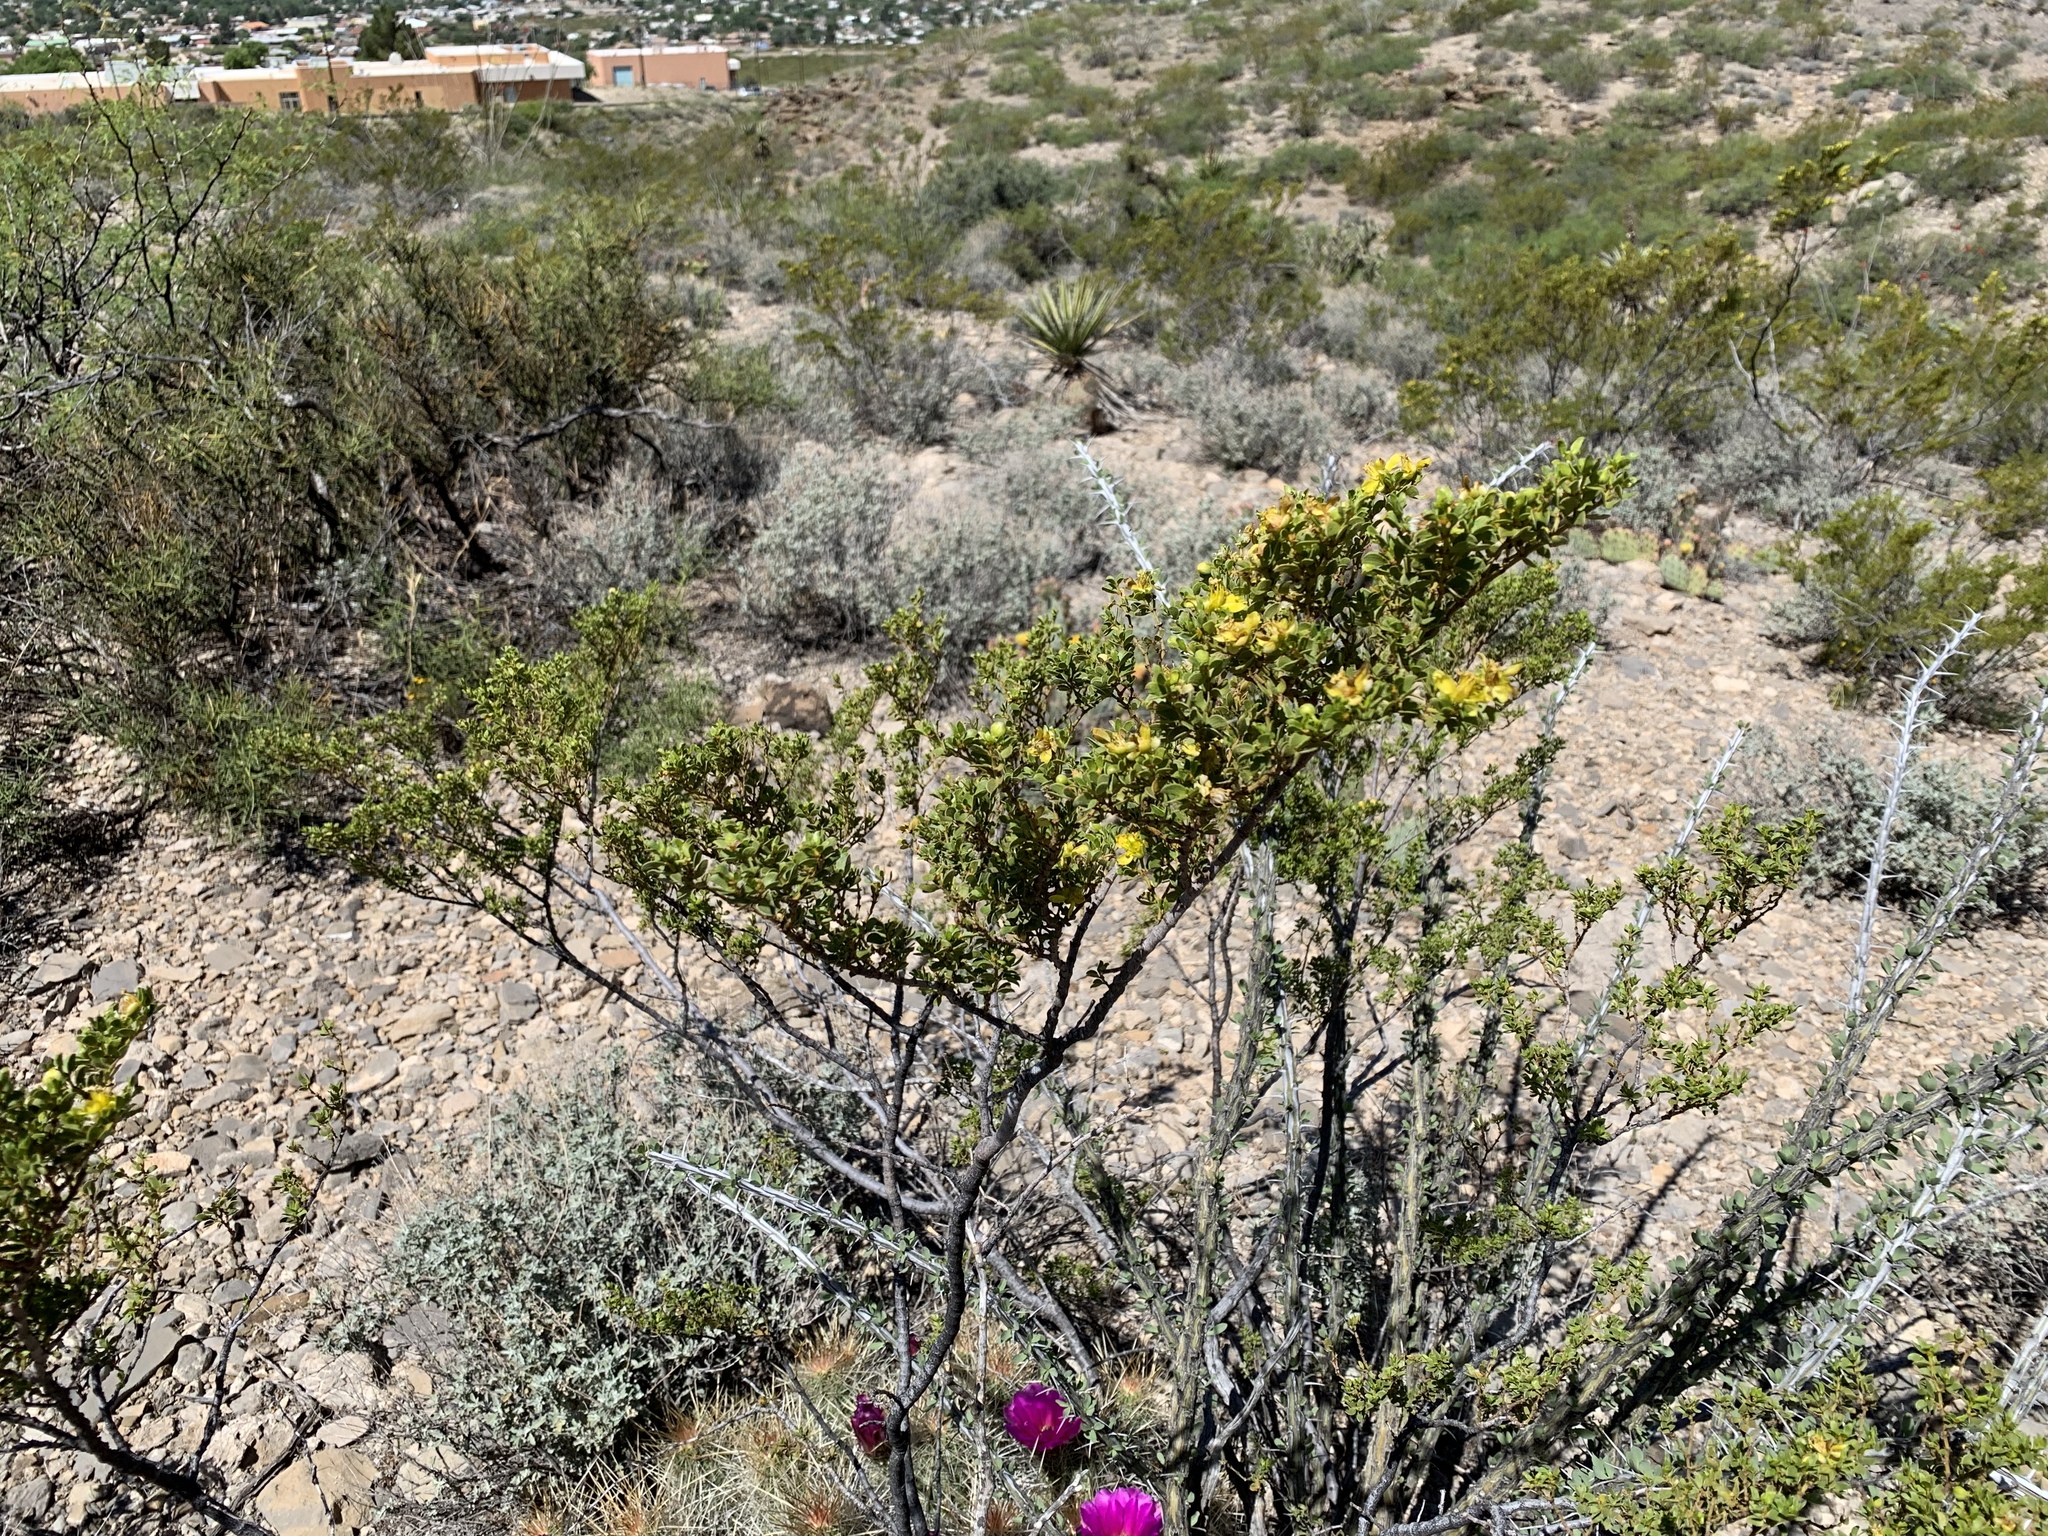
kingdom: Plantae
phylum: Tracheophyta
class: Magnoliopsida
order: Zygophyllales
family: Zygophyllaceae
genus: Larrea
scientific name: Larrea tridentata
